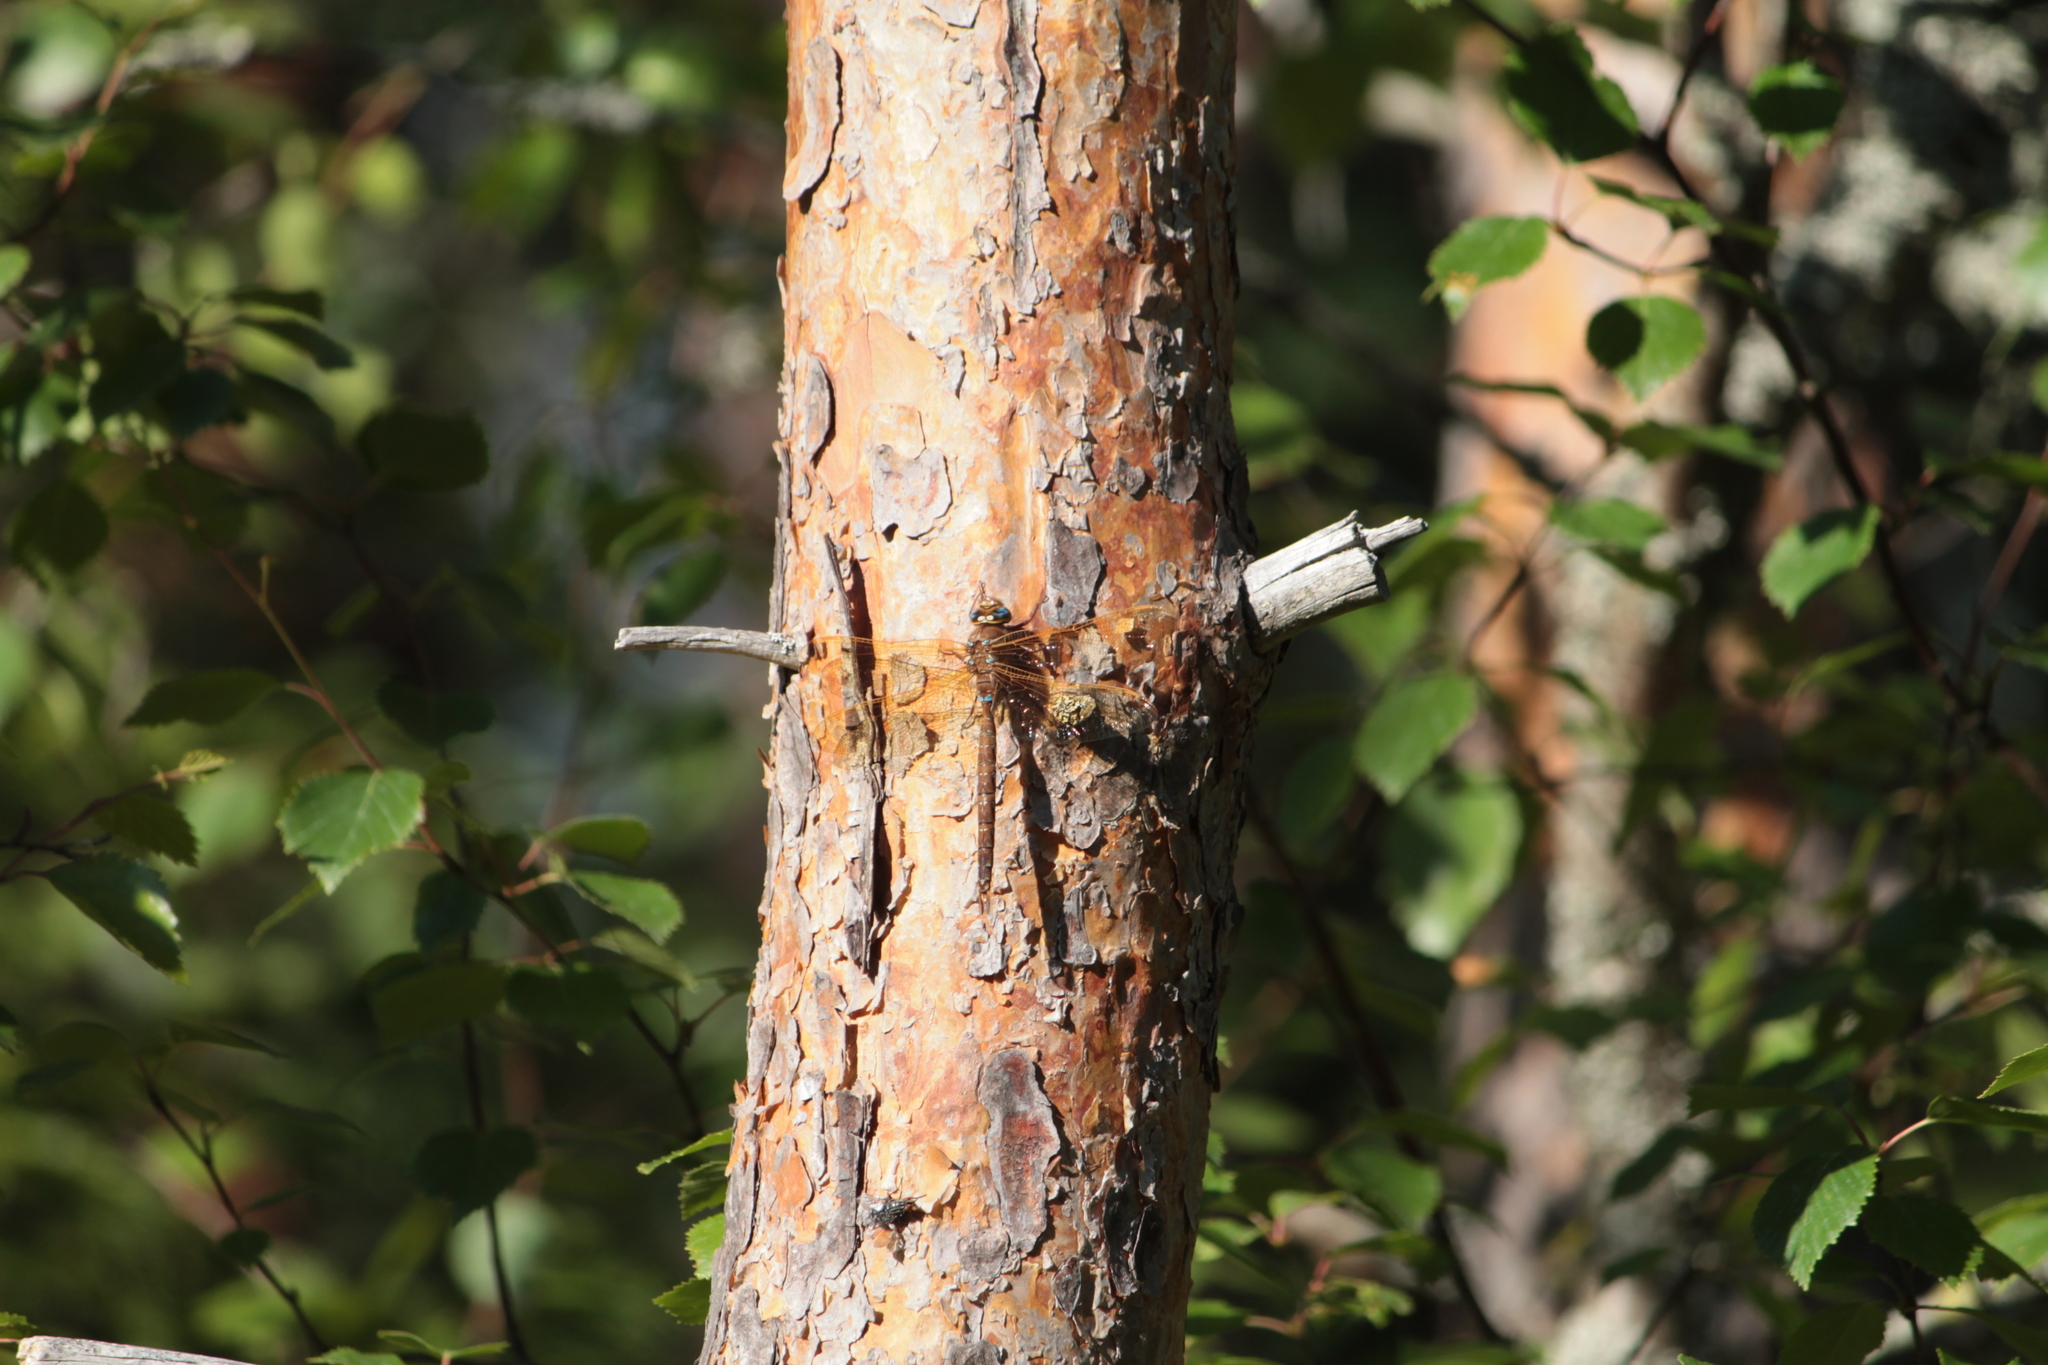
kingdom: Animalia
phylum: Arthropoda
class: Insecta
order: Odonata
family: Aeshnidae
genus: Aeshna
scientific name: Aeshna grandis
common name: Brown hawker
